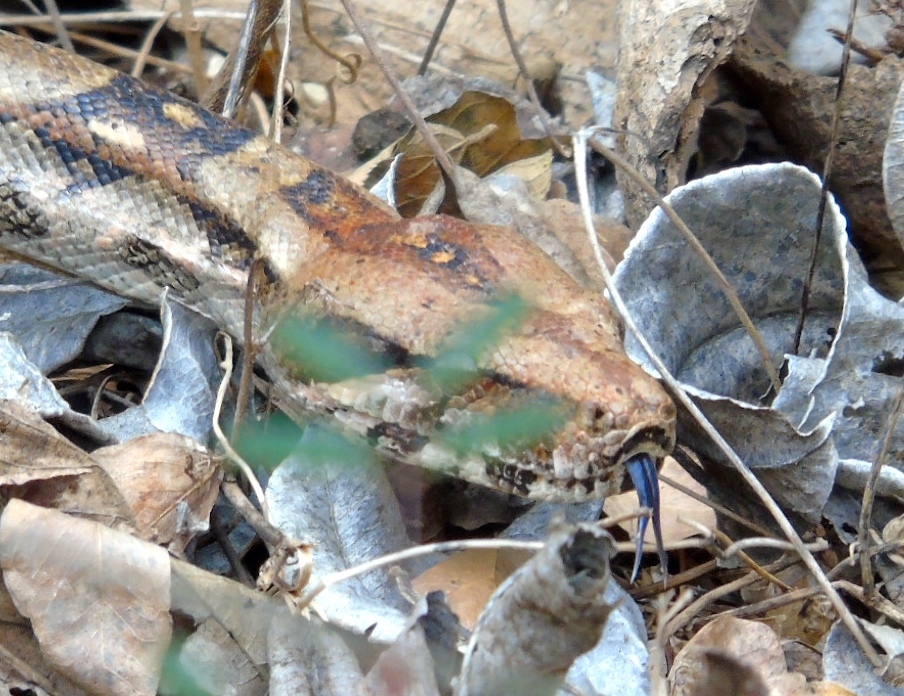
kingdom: Animalia
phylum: Chordata
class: Squamata
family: Boidae
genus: Boa
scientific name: Boa
